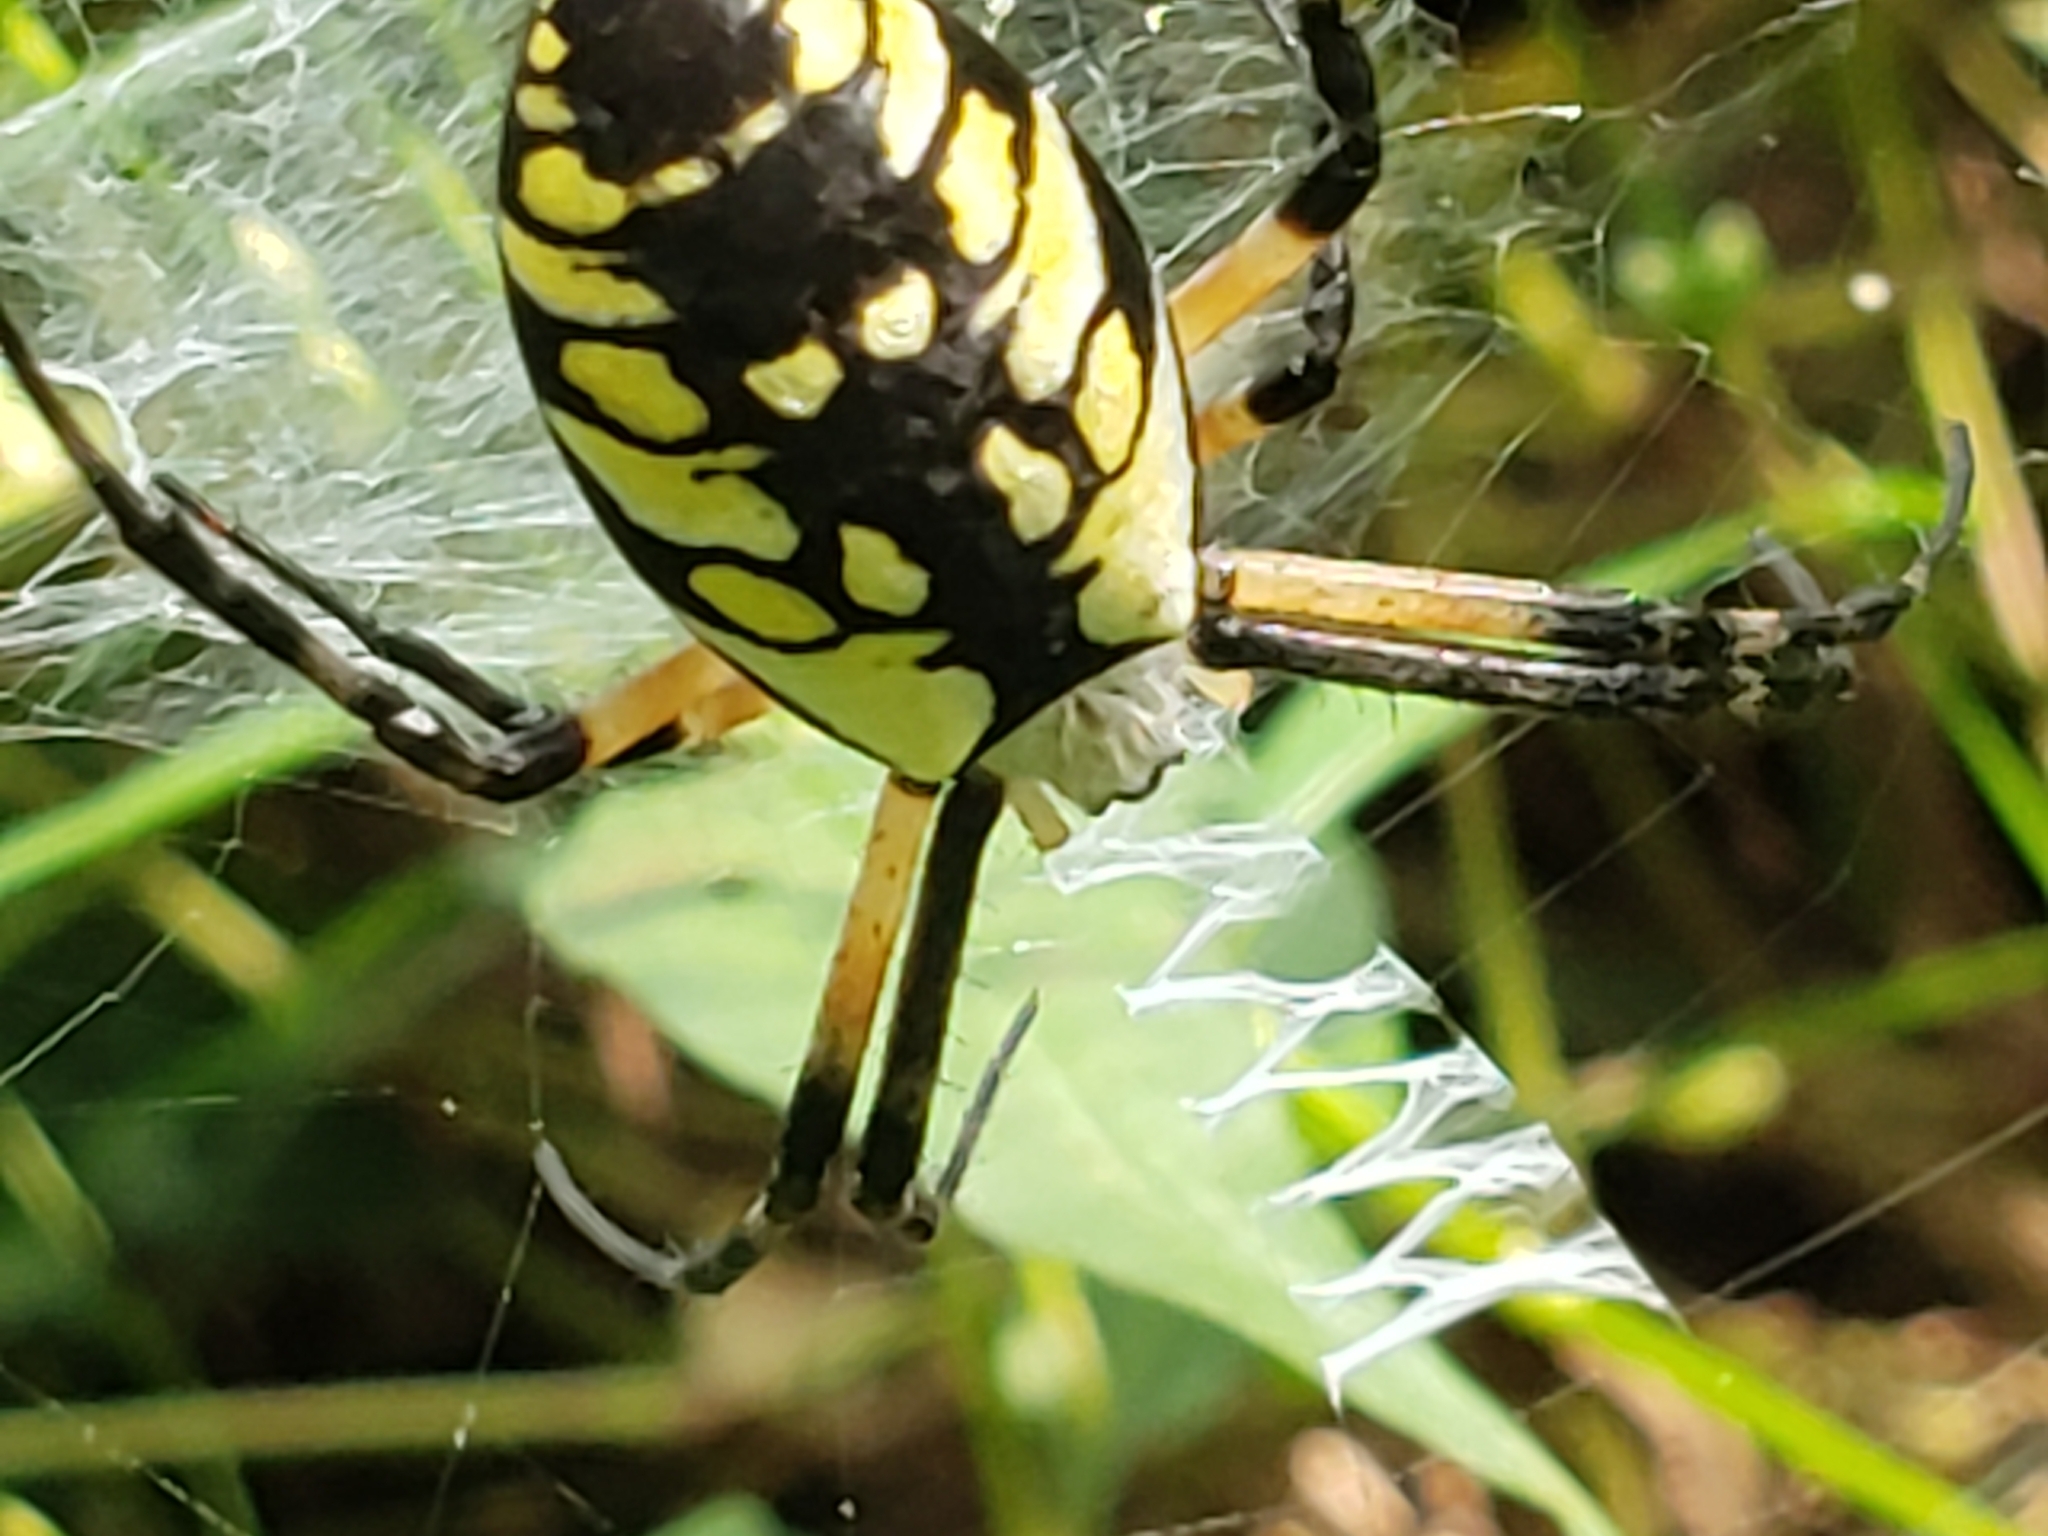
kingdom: Animalia
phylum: Arthropoda
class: Arachnida
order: Araneae
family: Araneidae
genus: Argiope
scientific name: Argiope aurantia
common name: Orb weavers
